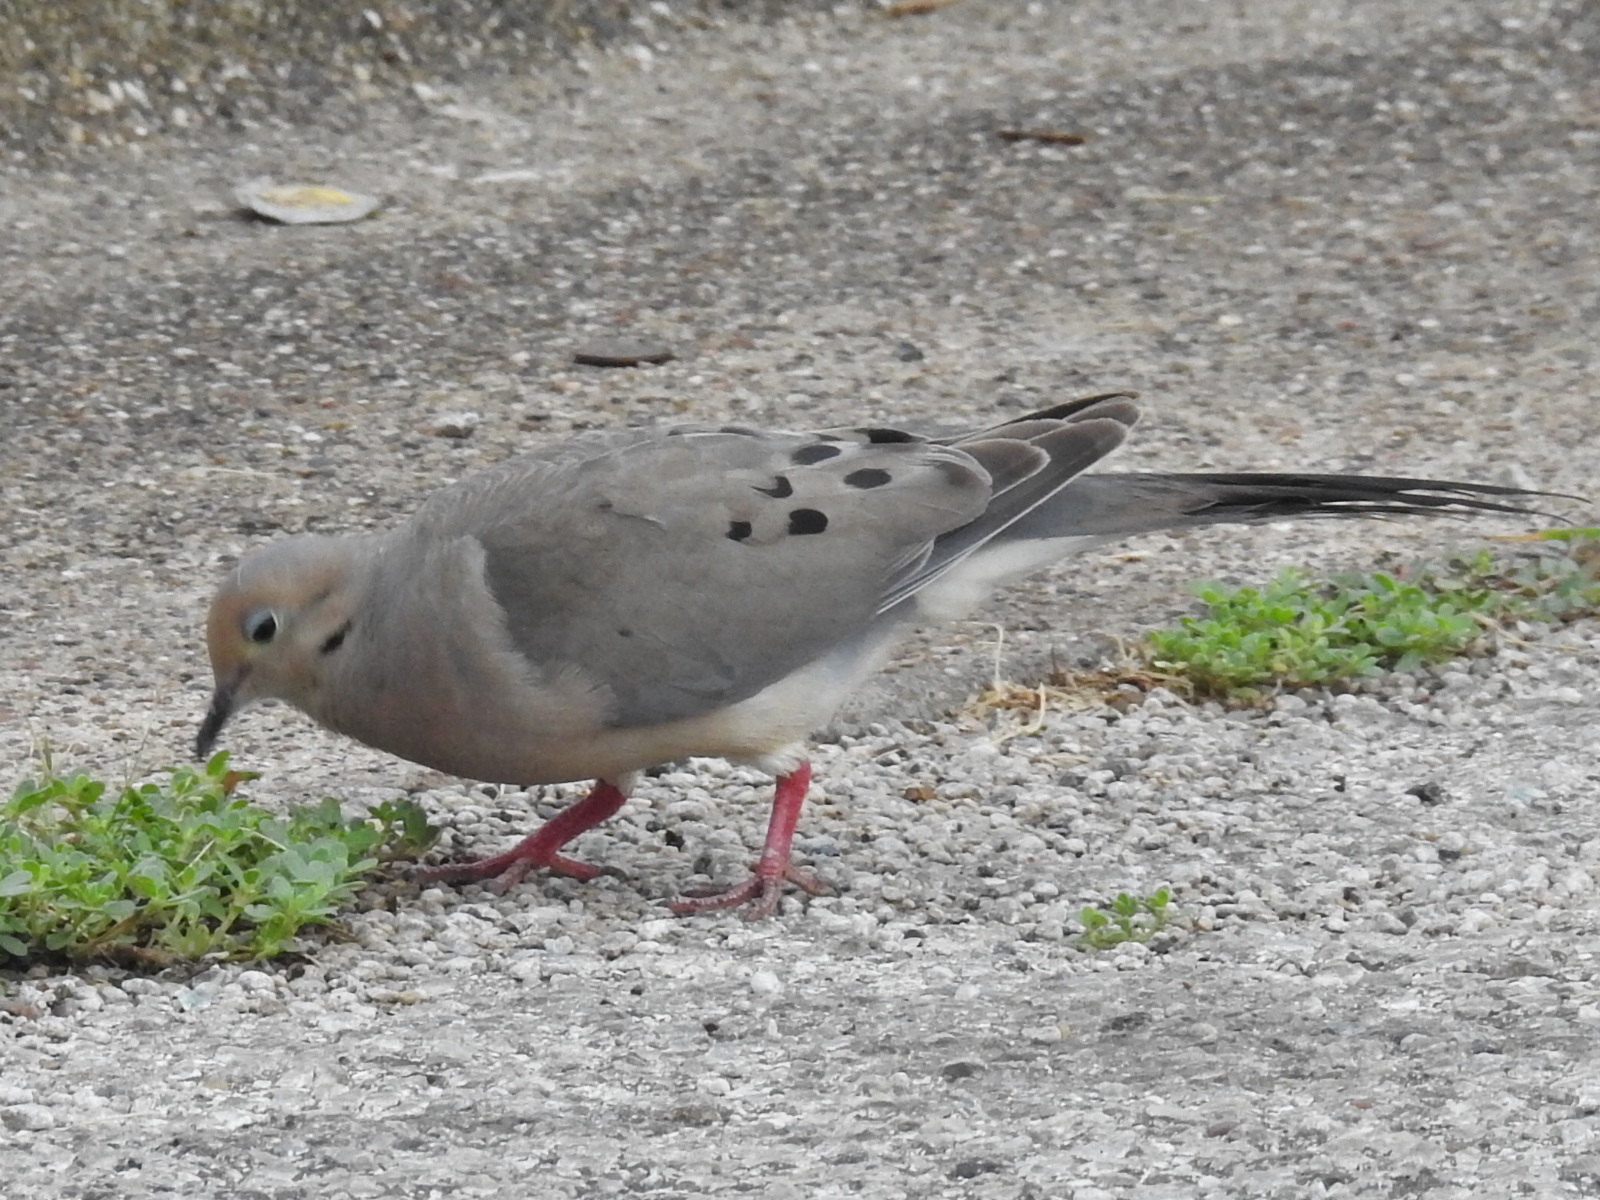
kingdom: Animalia
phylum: Chordata
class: Aves
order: Columbiformes
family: Columbidae
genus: Zenaida
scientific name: Zenaida macroura
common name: Mourning dove
